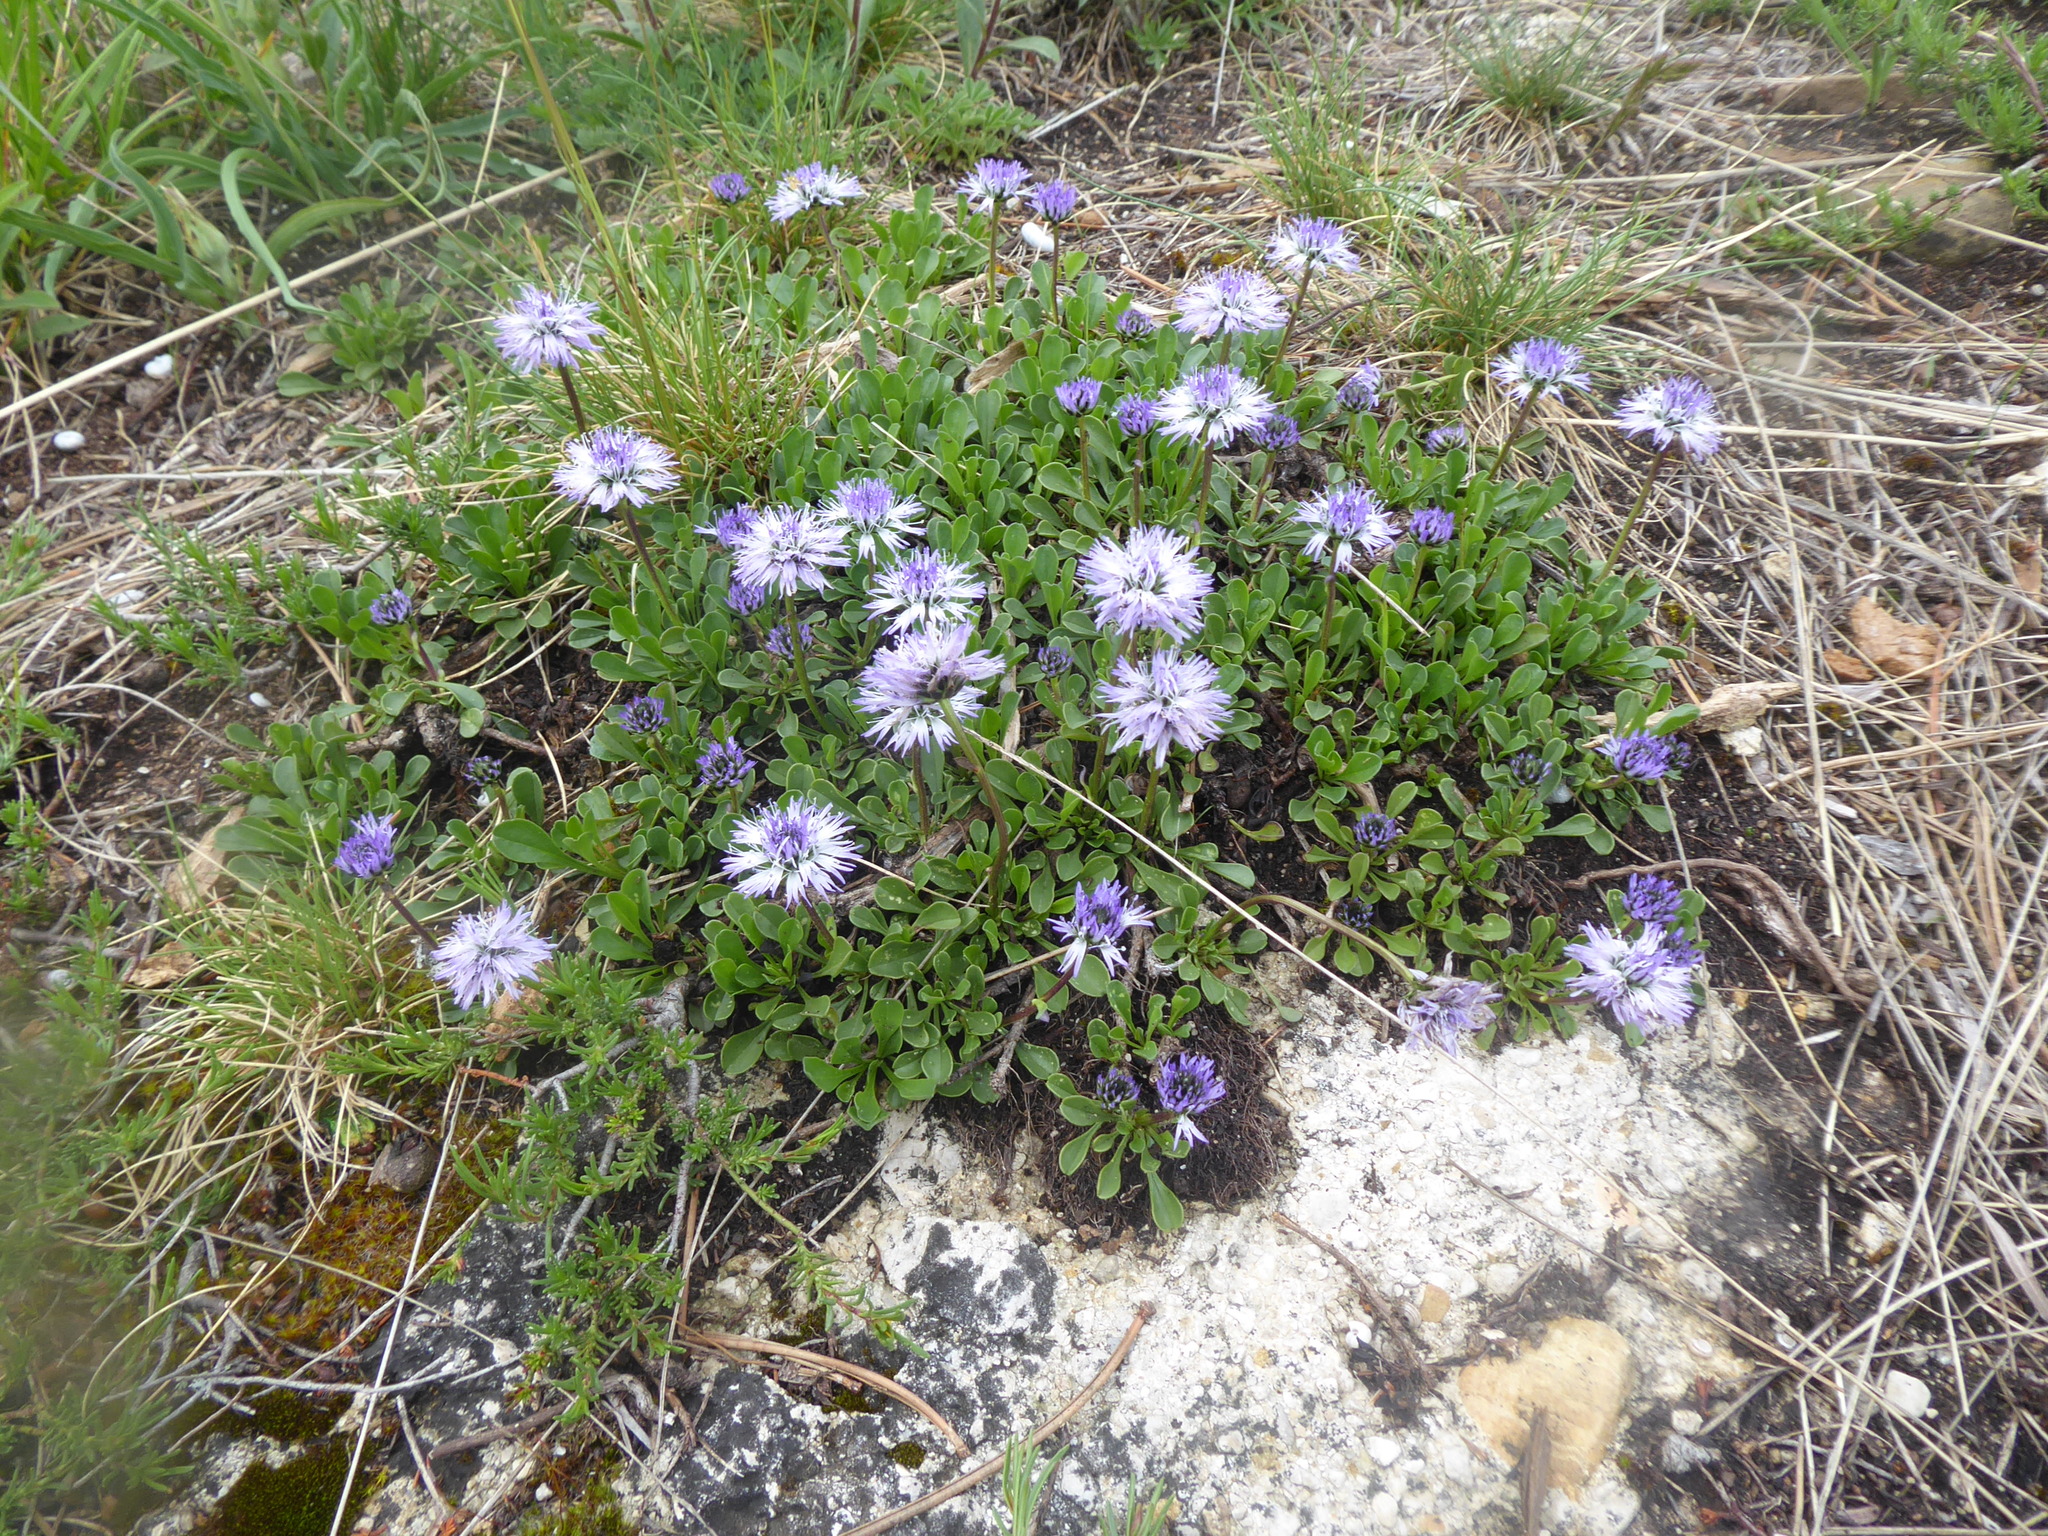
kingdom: Plantae
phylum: Tracheophyta
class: Magnoliopsida
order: Lamiales
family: Plantaginaceae
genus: Globularia
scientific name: Globularia cordifolia
